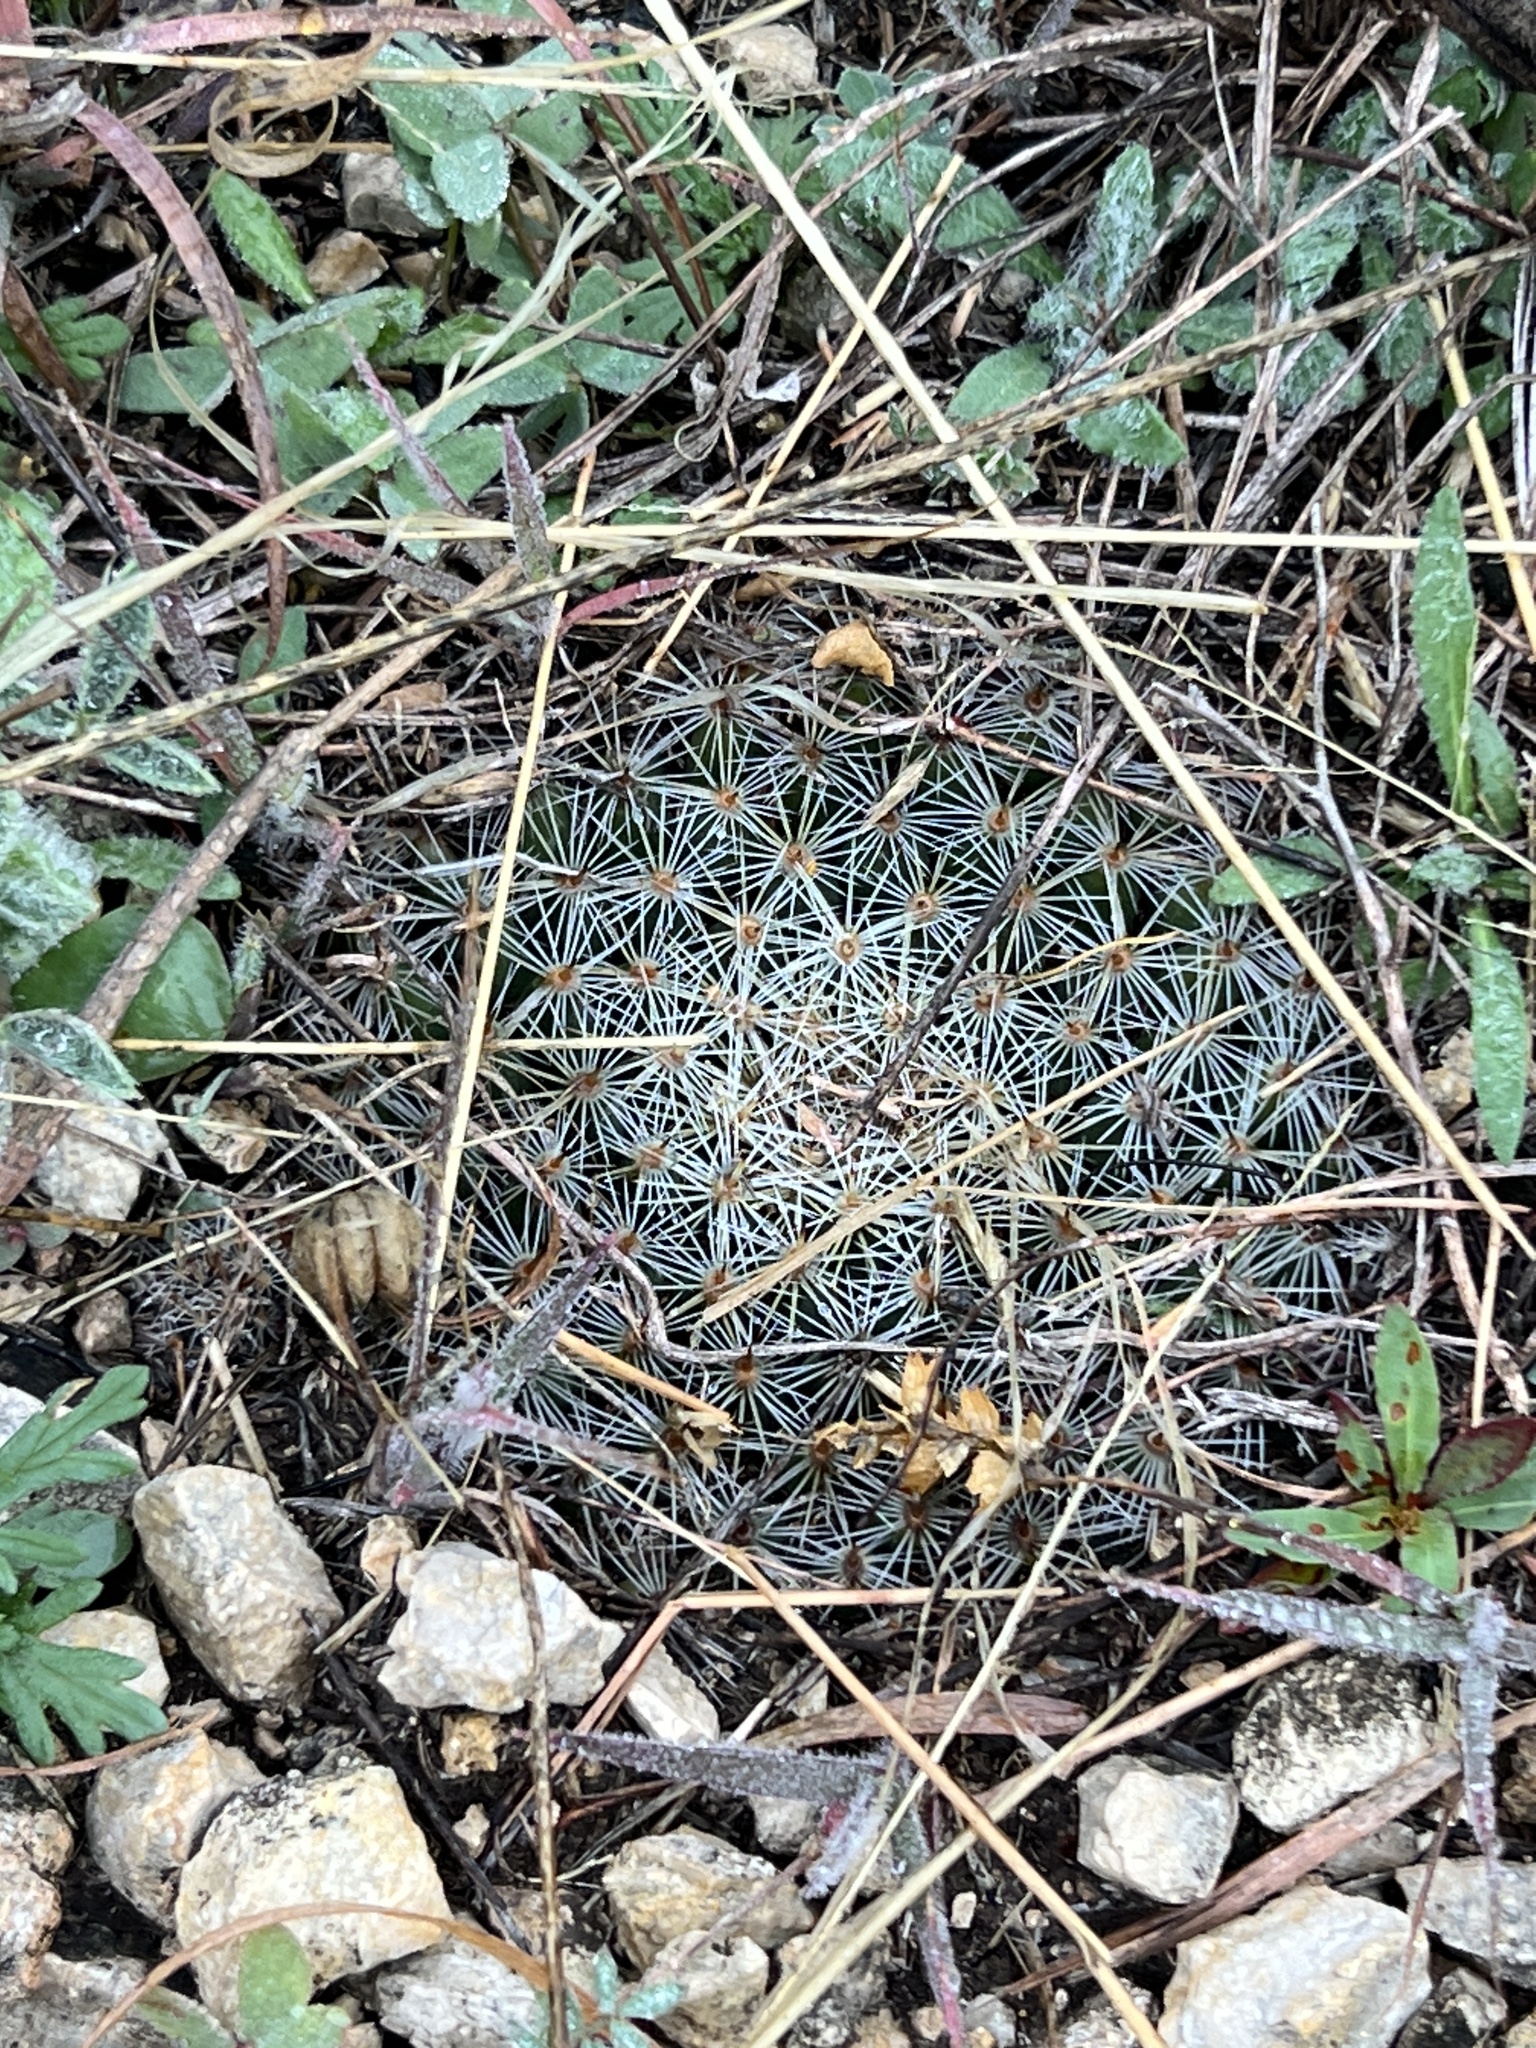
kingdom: Plantae
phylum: Tracheophyta
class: Magnoliopsida
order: Caryophyllales
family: Cactaceae
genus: Mammillaria
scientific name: Mammillaria heyderi
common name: Little nipple cactus
